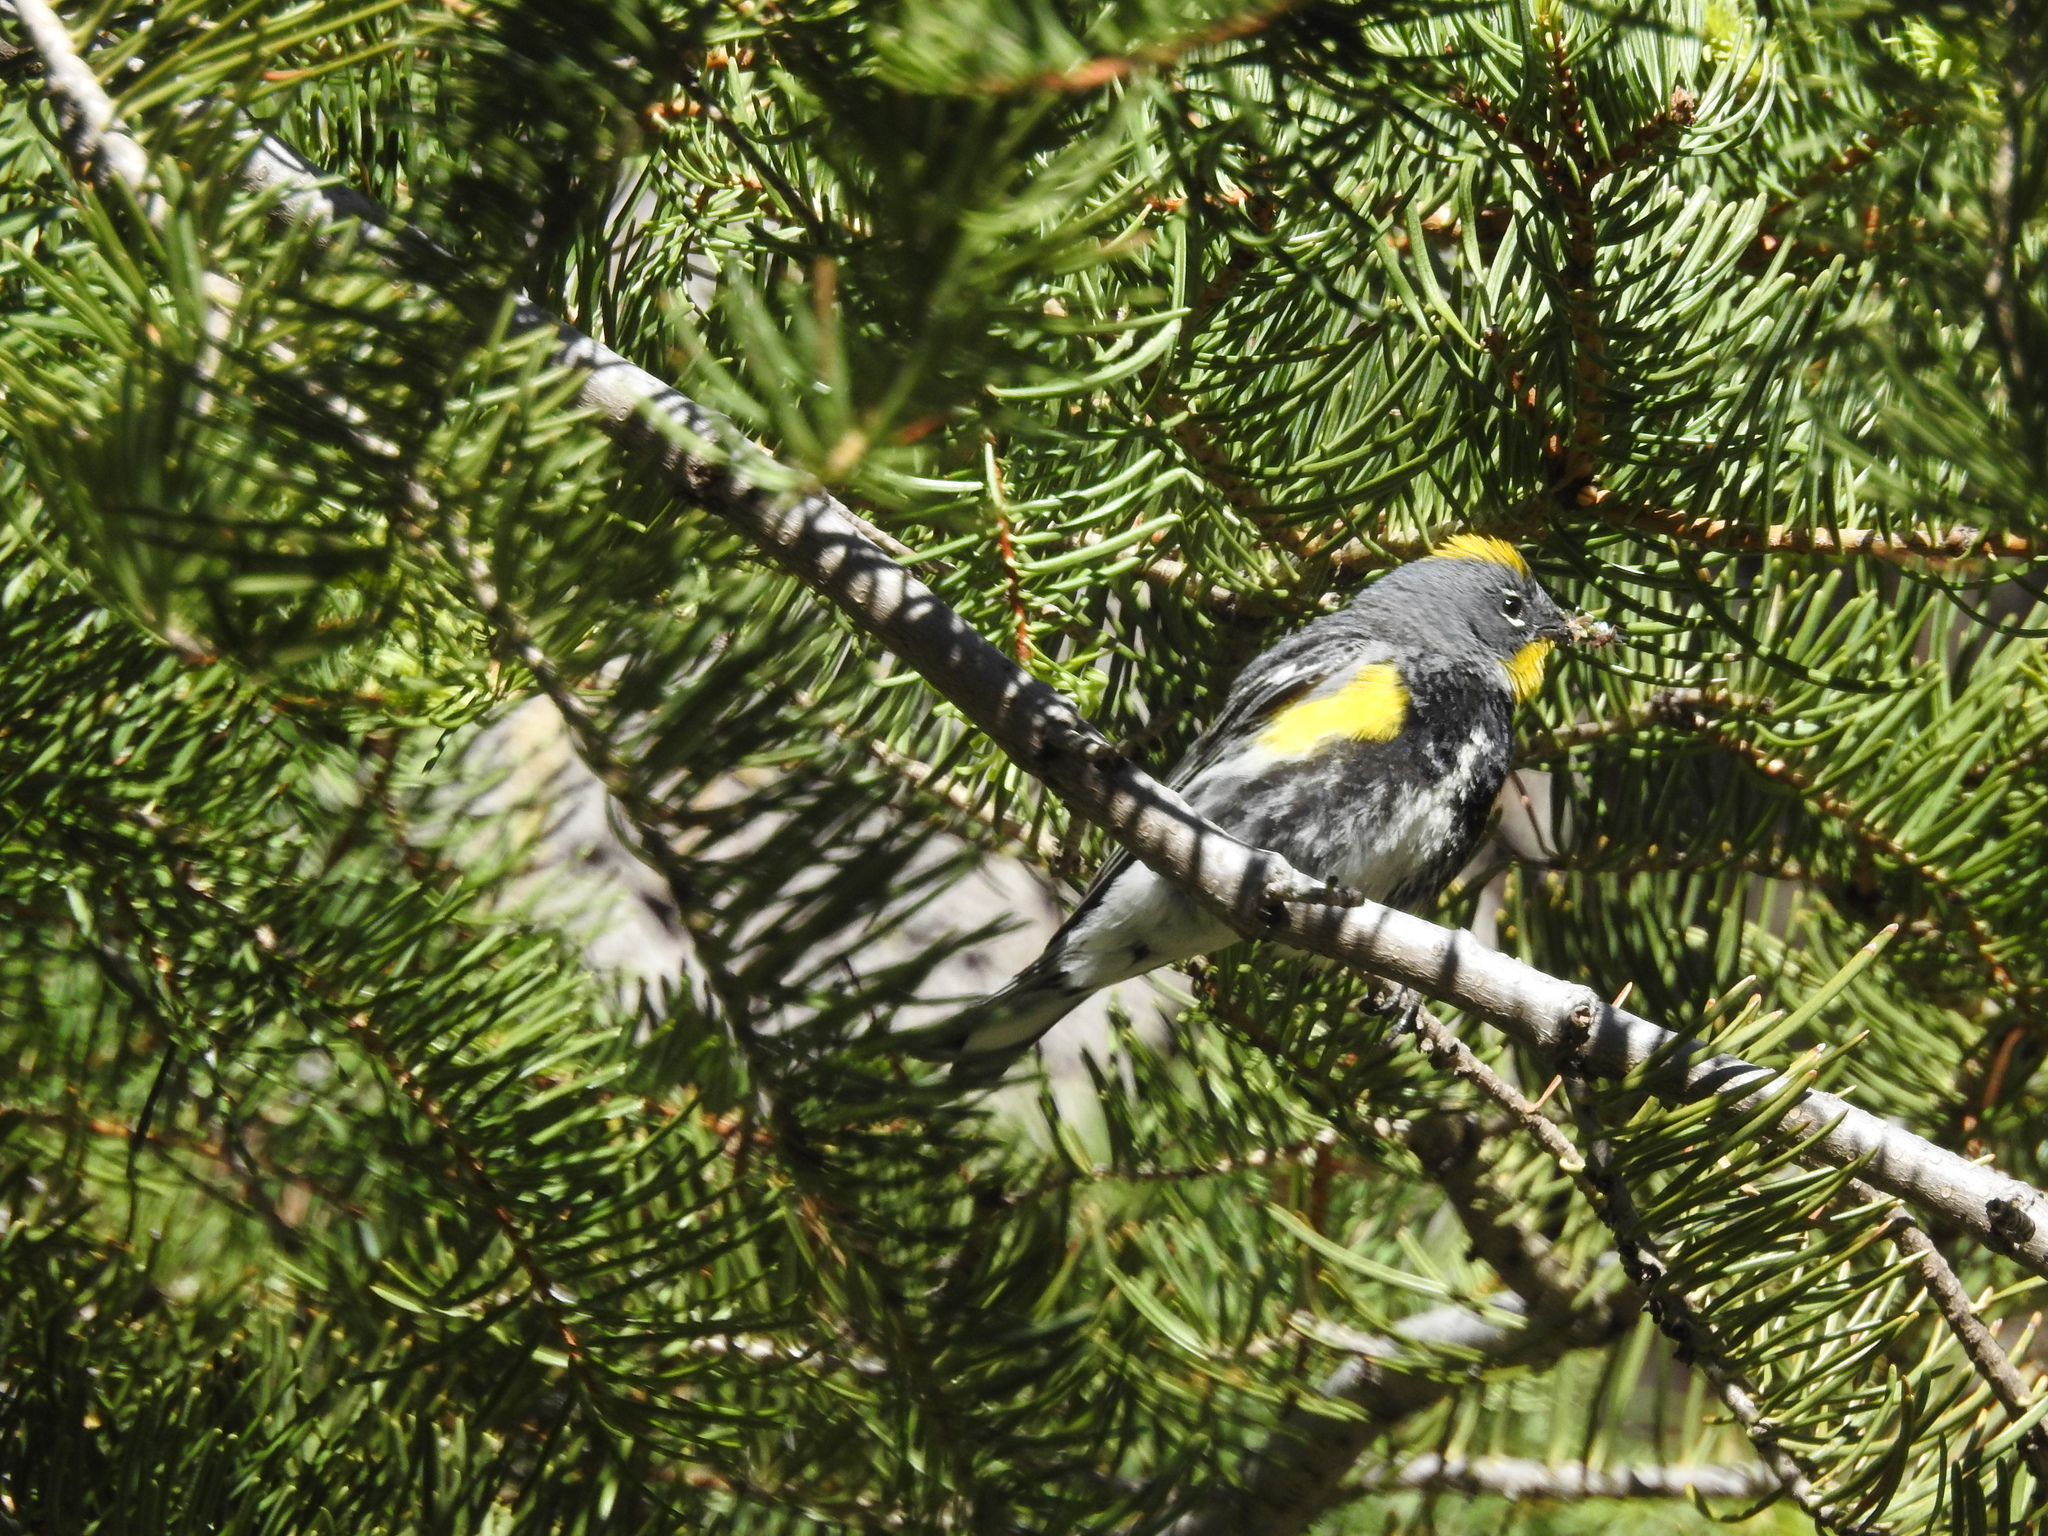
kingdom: Animalia
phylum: Chordata
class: Aves
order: Passeriformes
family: Parulidae
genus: Setophaga
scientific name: Setophaga coronata
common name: Myrtle warbler
